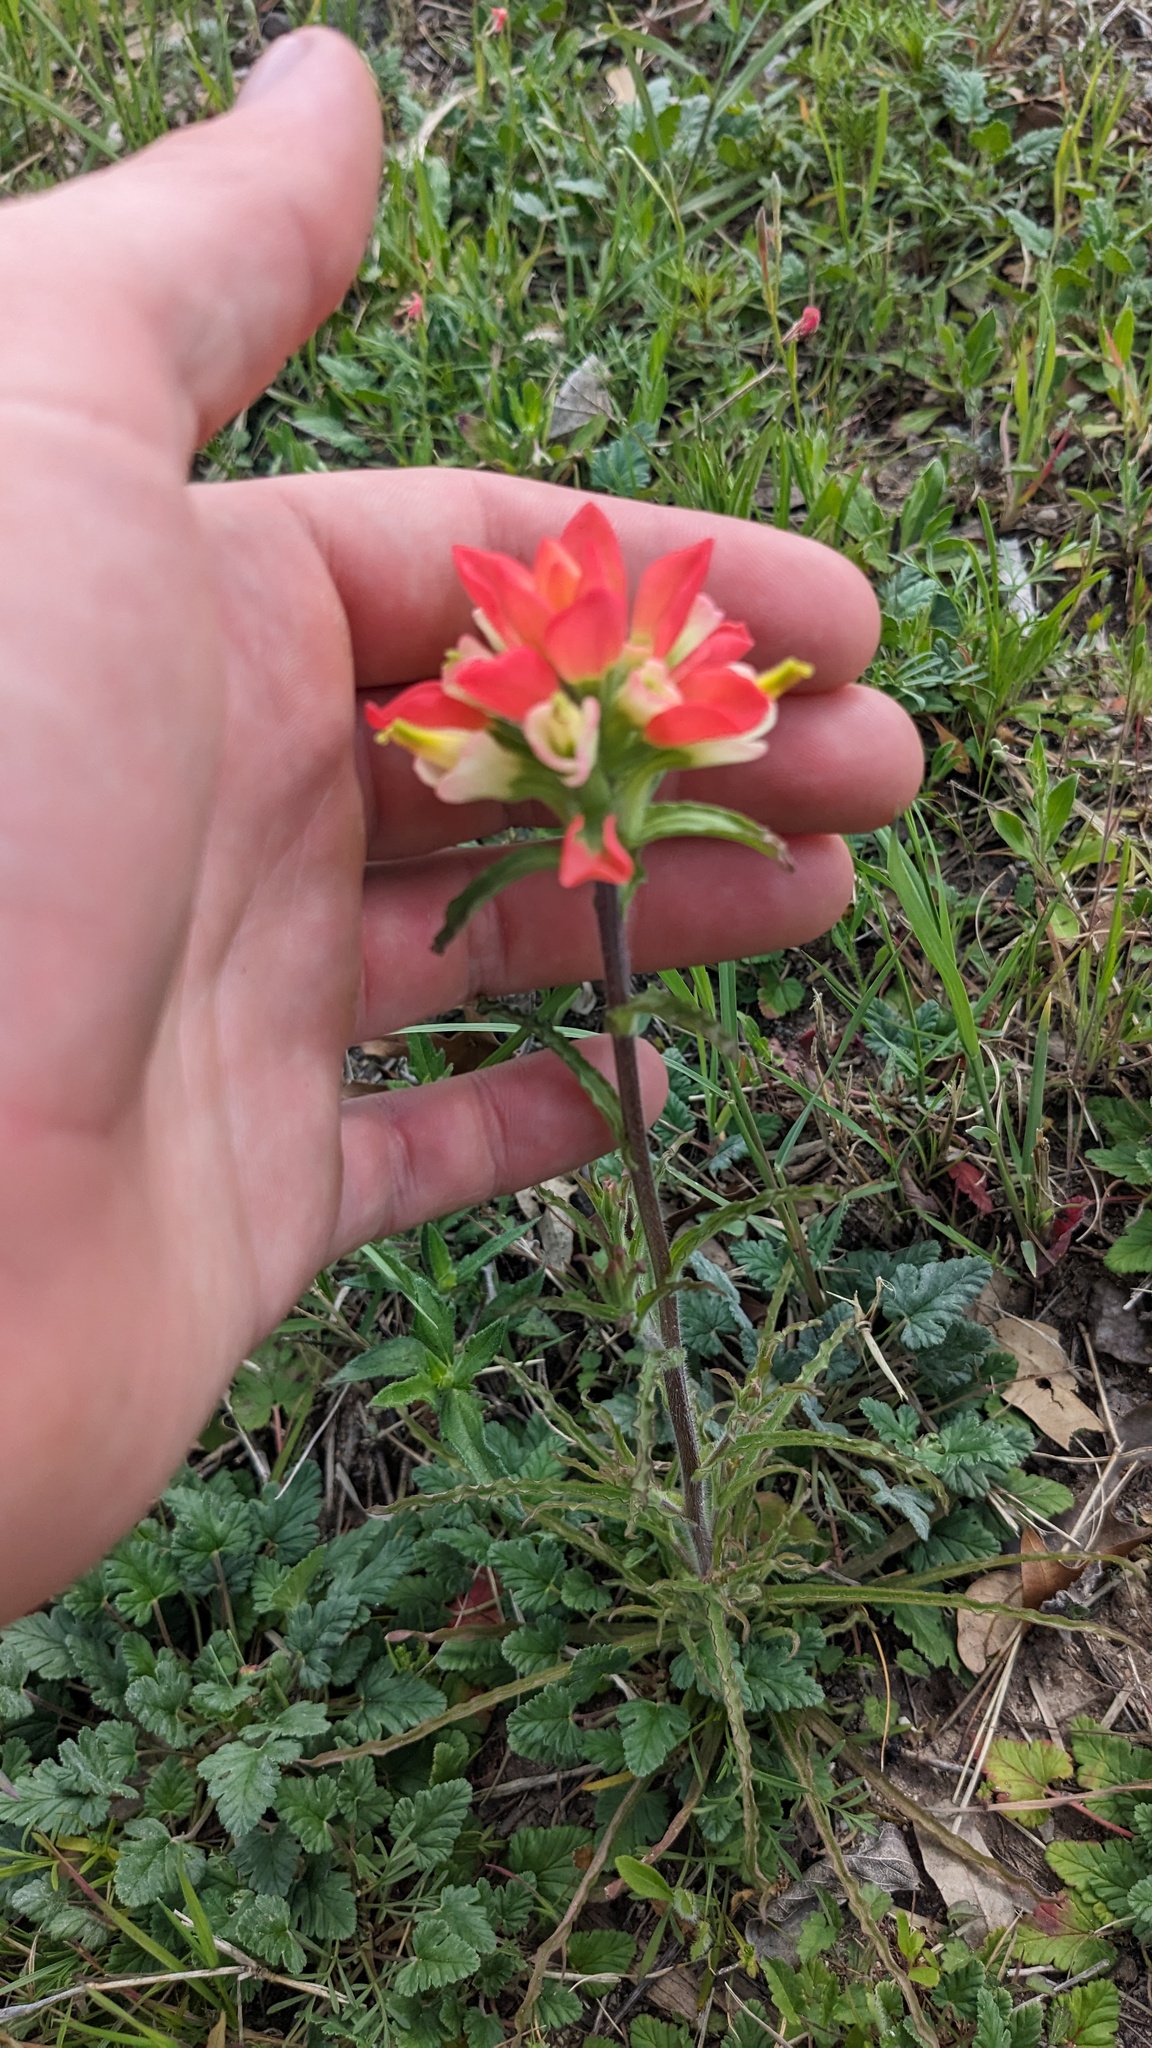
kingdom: Plantae
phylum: Tracheophyta
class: Magnoliopsida
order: Lamiales
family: Orobanchaceae
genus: Castilleja
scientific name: Castilleja indivisa
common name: Texas paintbrush
